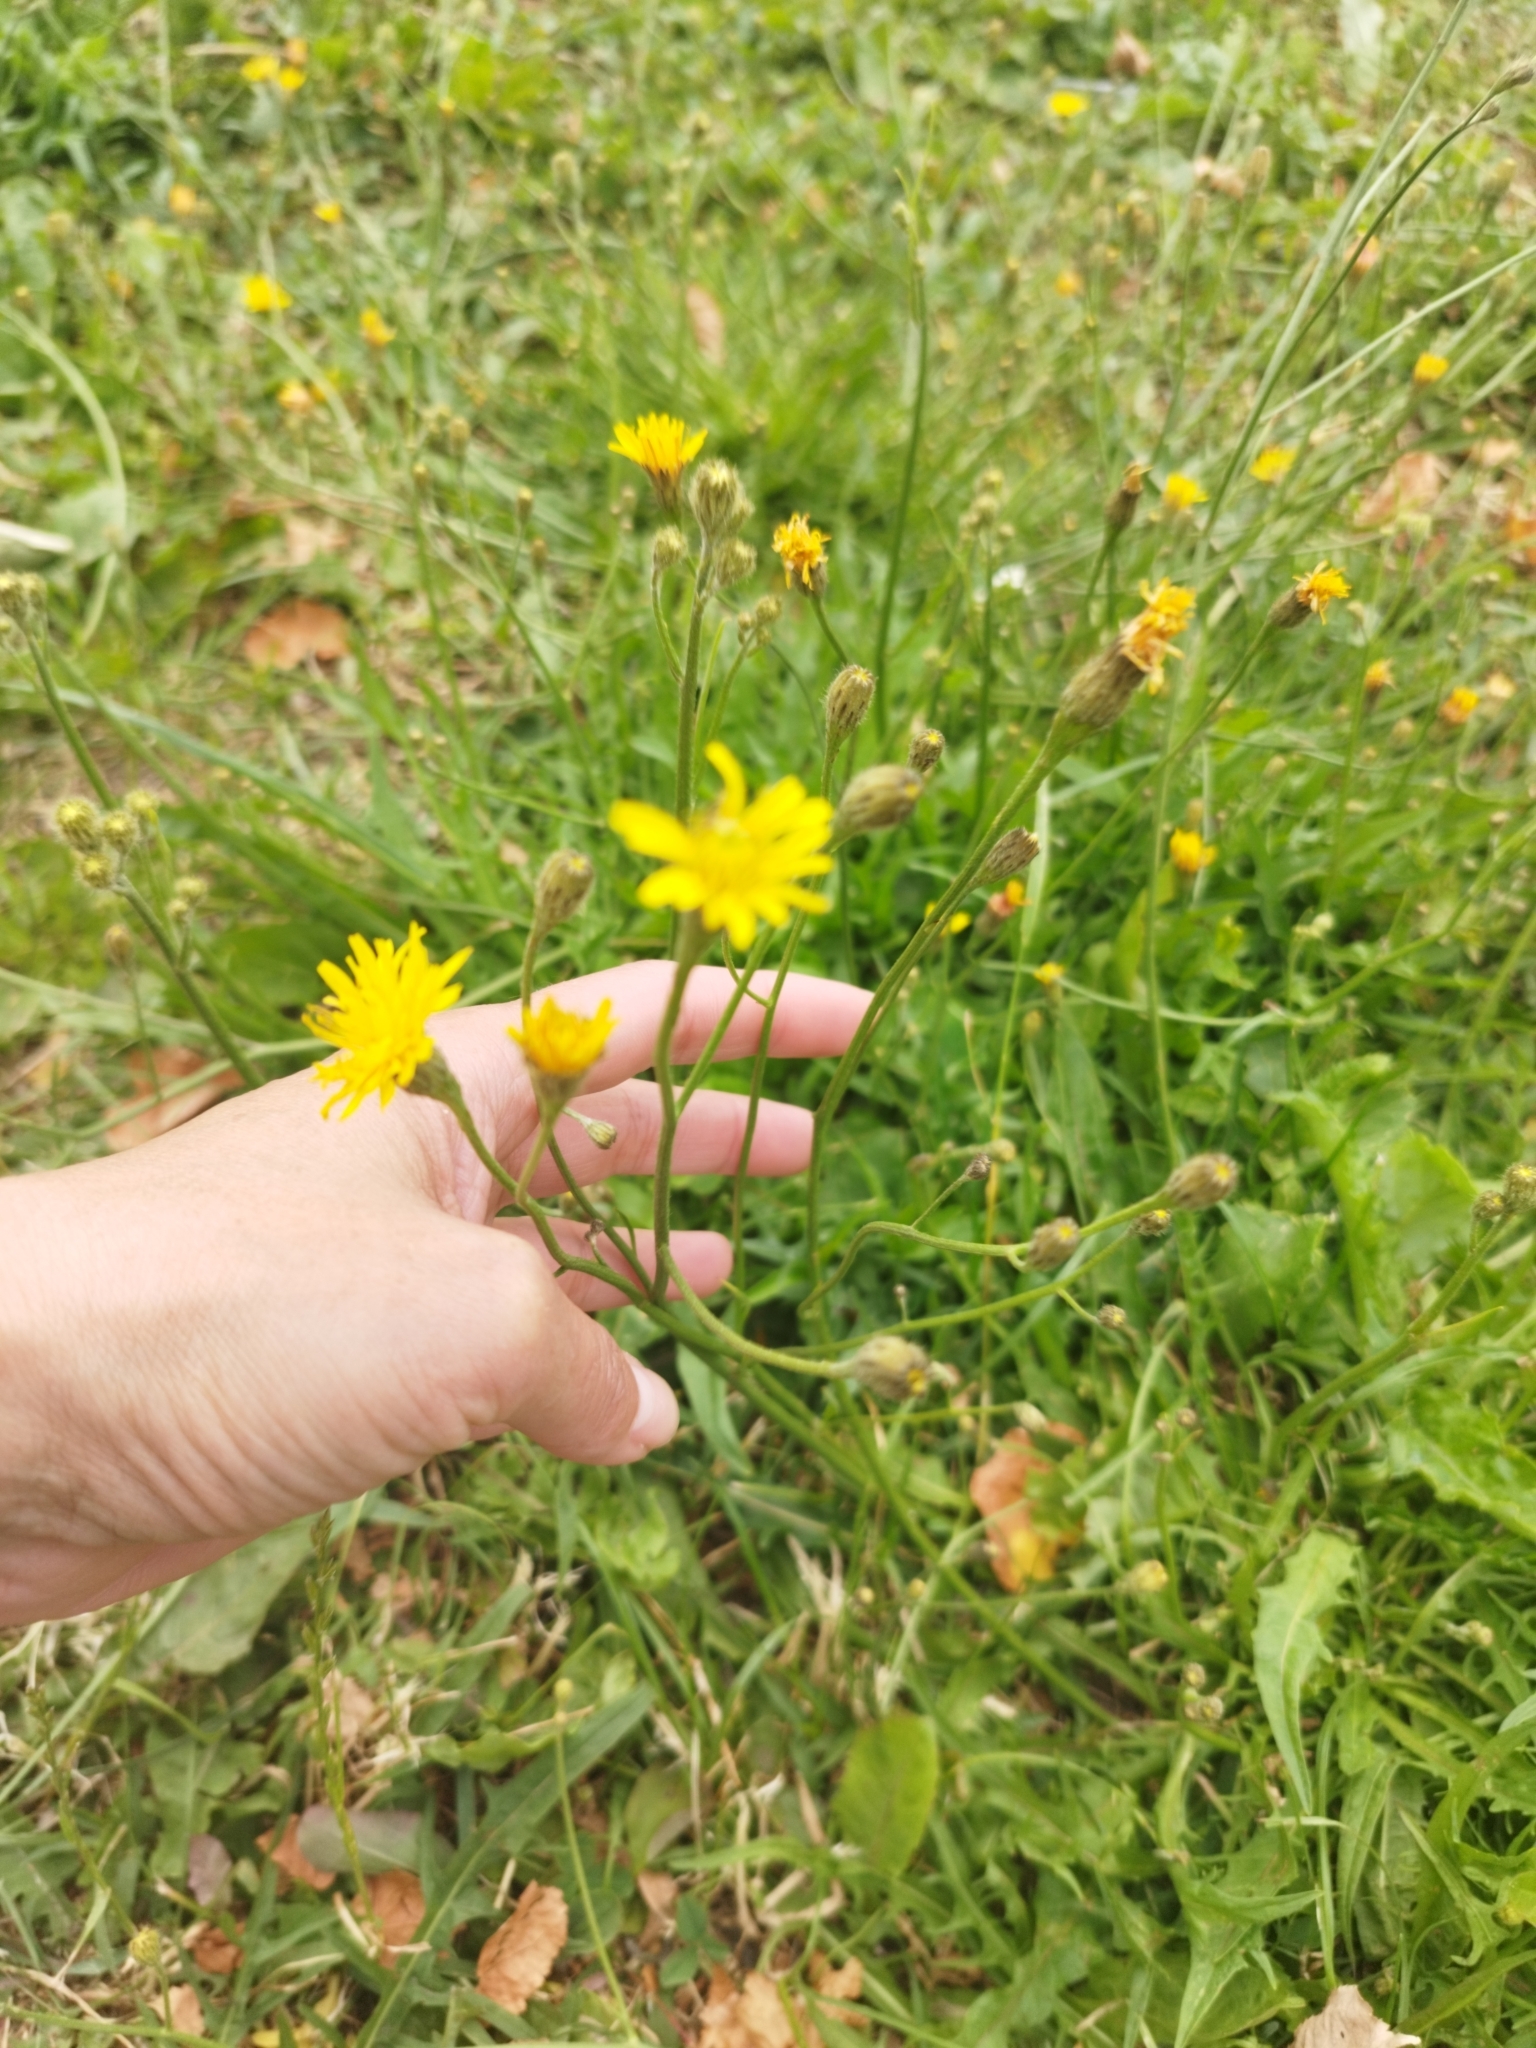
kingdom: Plantae
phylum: Tracheophyta
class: Magnoliopsida
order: Asterales
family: Asteraceae
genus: Scorzoneroides
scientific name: Scorzoneroides autumnalis
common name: Autumn hawkbit
